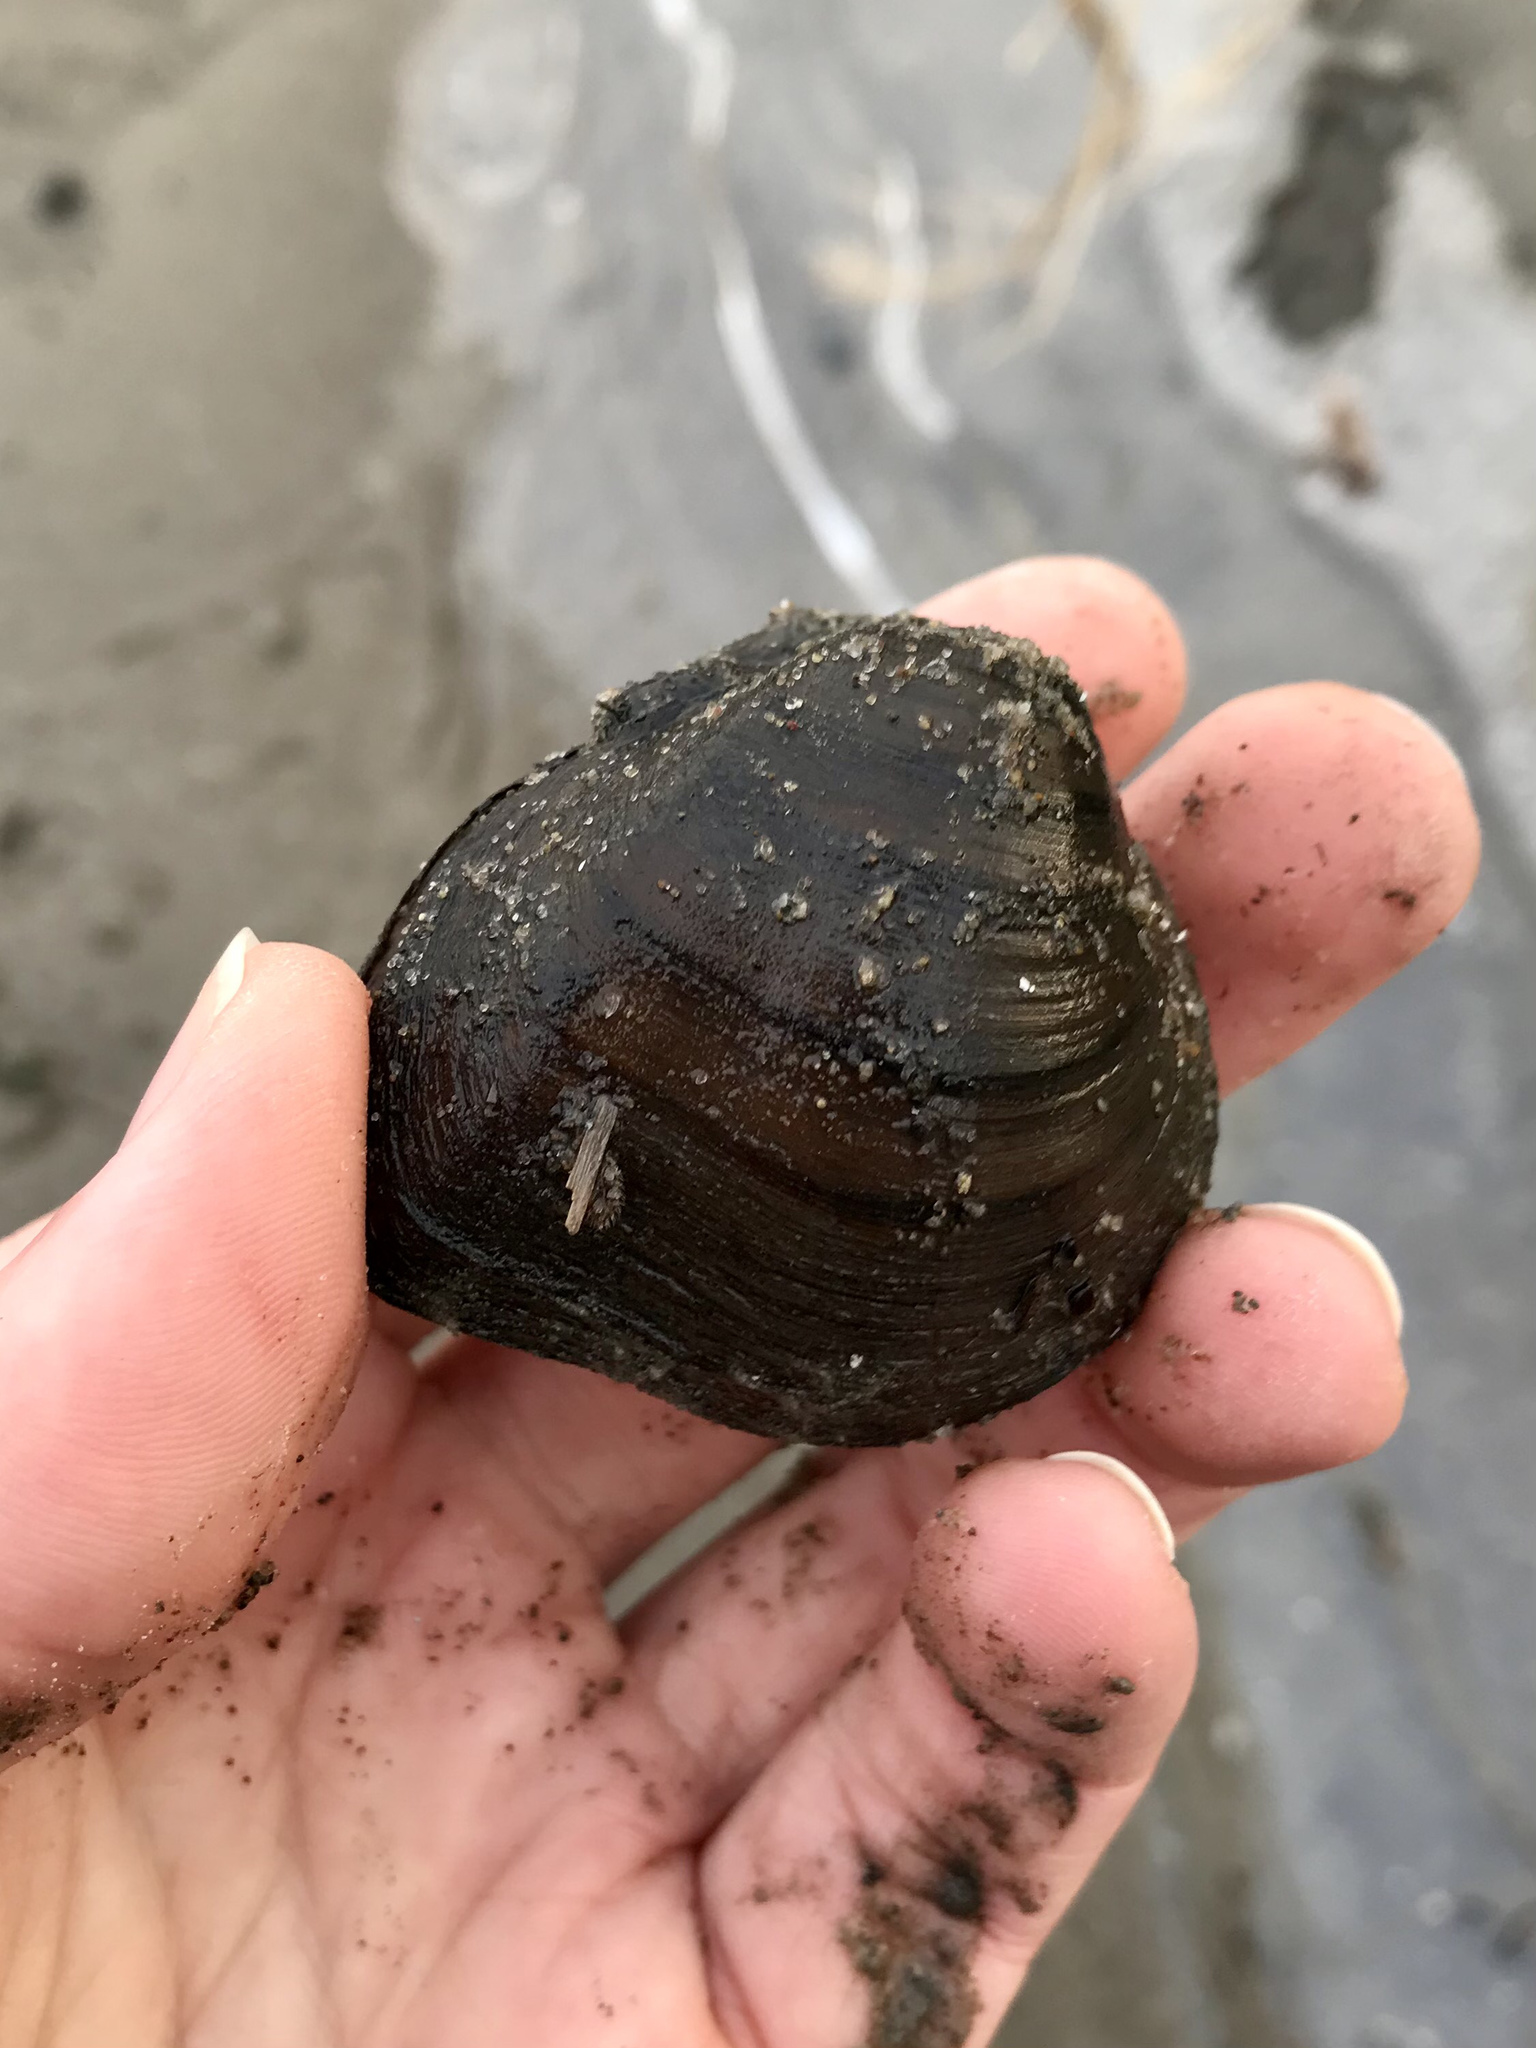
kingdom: Animalia
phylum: Mollusca
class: Bivalvia
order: Unionida
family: Unionidae
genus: Fusconaia
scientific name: Fusconaia flava
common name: Wabash pigtoe
